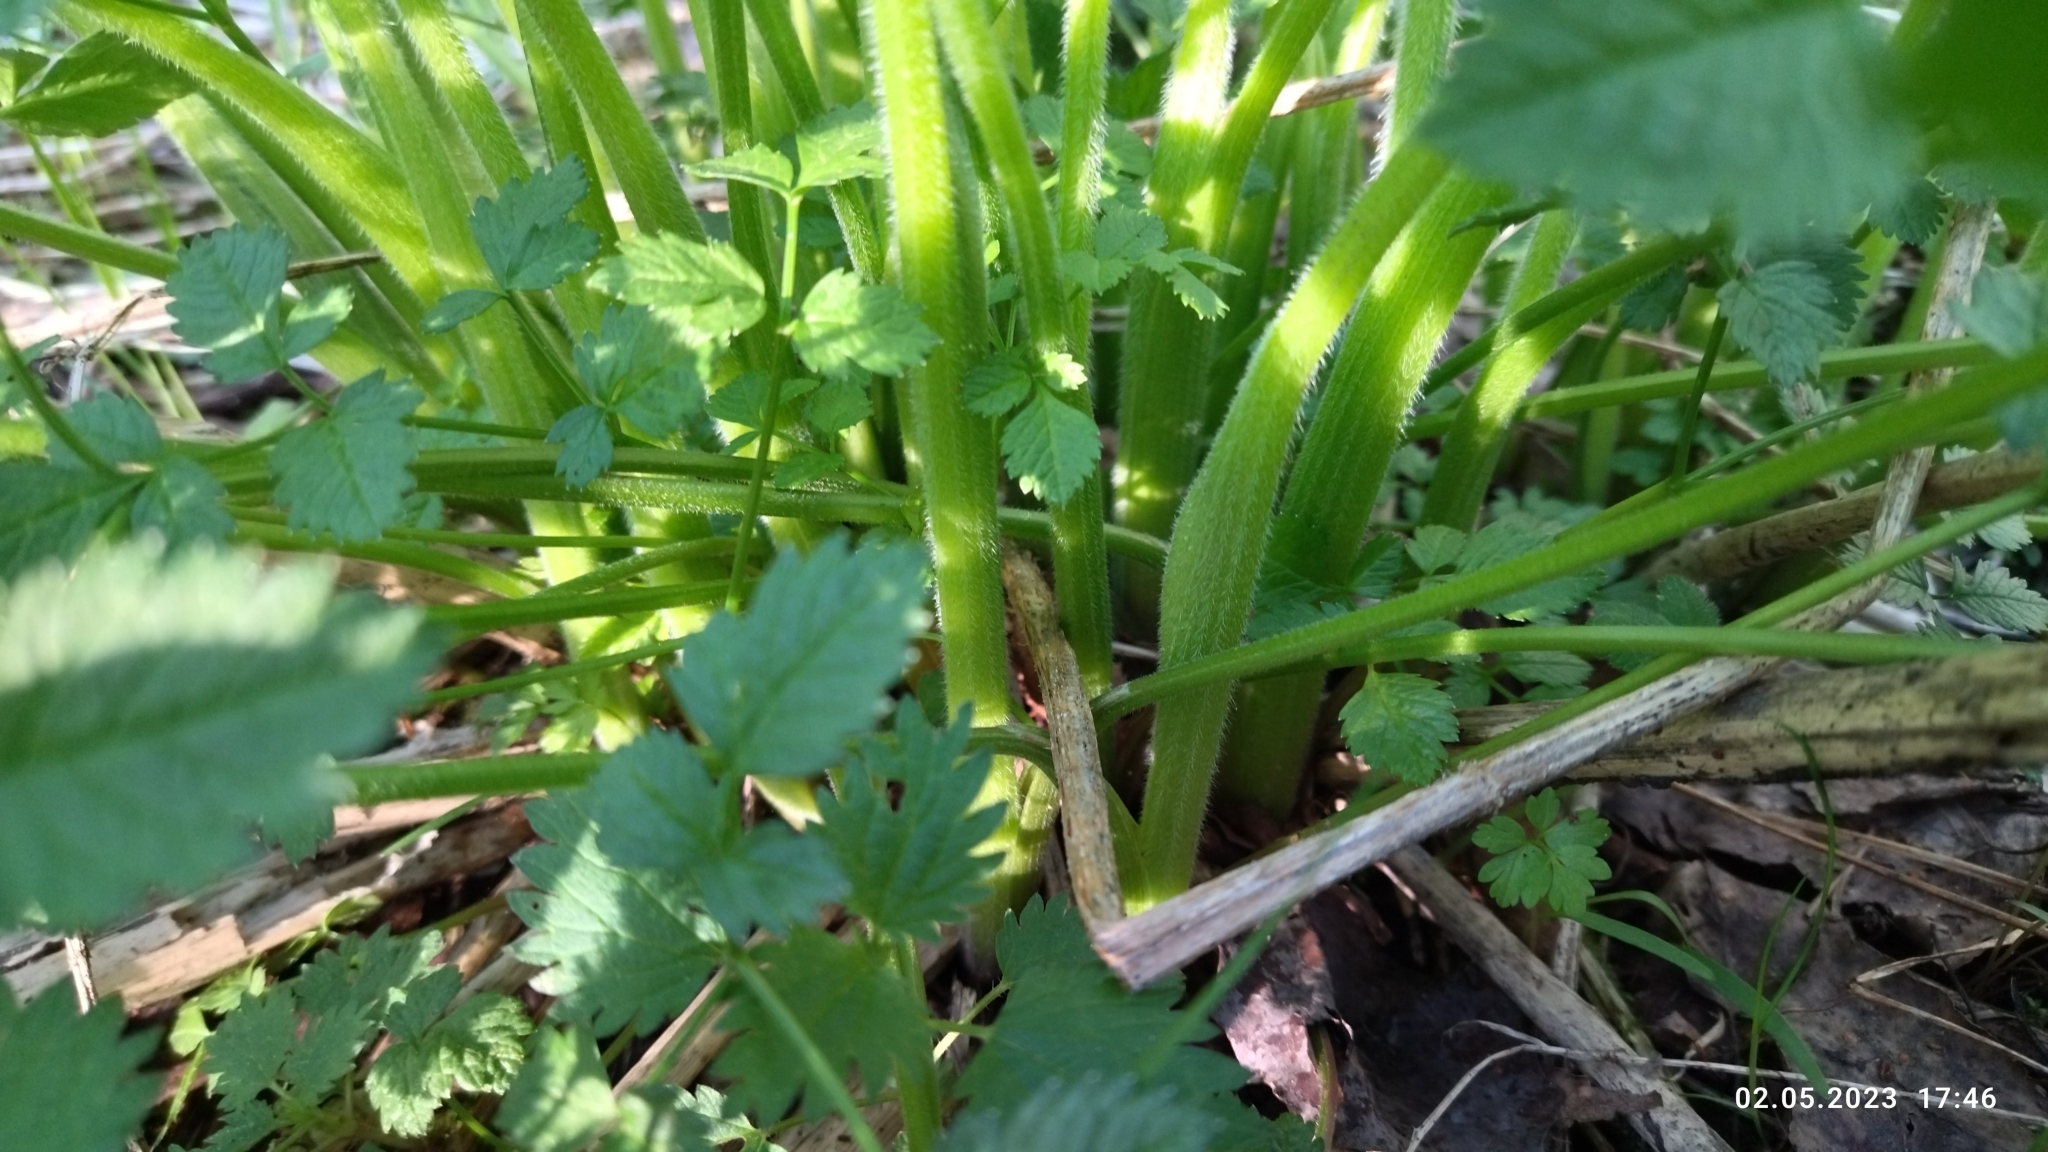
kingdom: Plantae
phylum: Tracheophyta
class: Magnoliopsida
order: Apiales
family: Apiaceae
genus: Chaerophyllum
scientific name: Chaerophyllum aromaticum
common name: Broadleaf chervil
